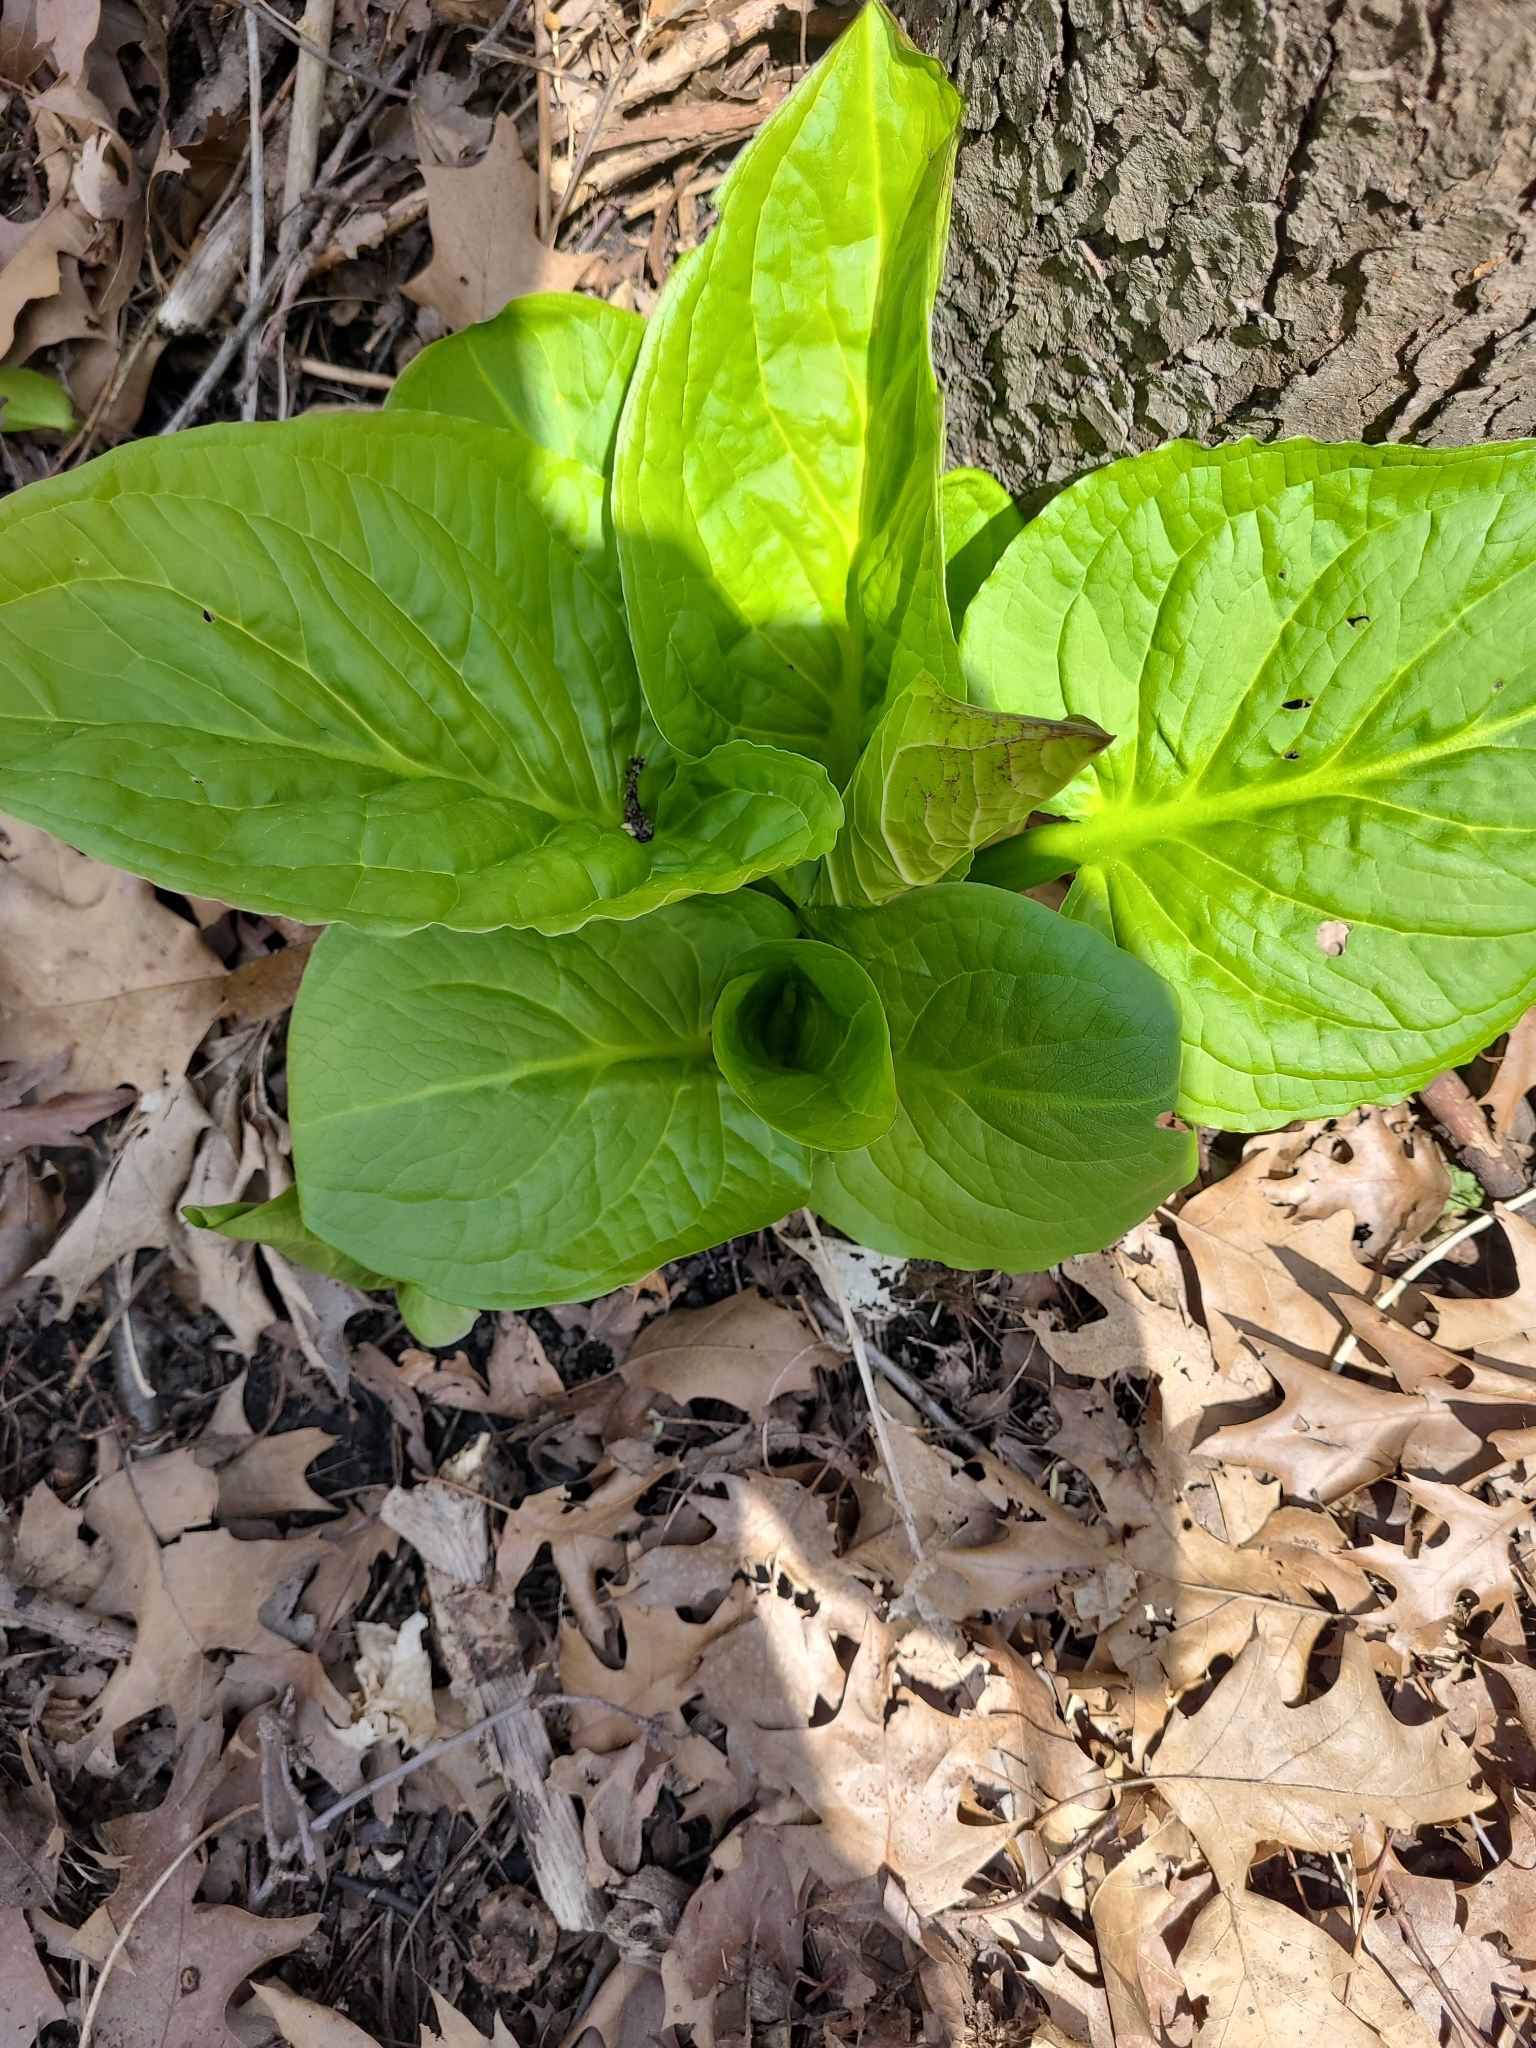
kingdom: Plantae
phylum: Tracheophyta
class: Liliopsida
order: Alismatales
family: Araceae
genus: Symplocarpus
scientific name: Symplocarpus foetidus
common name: Eastern skunk cabbage
